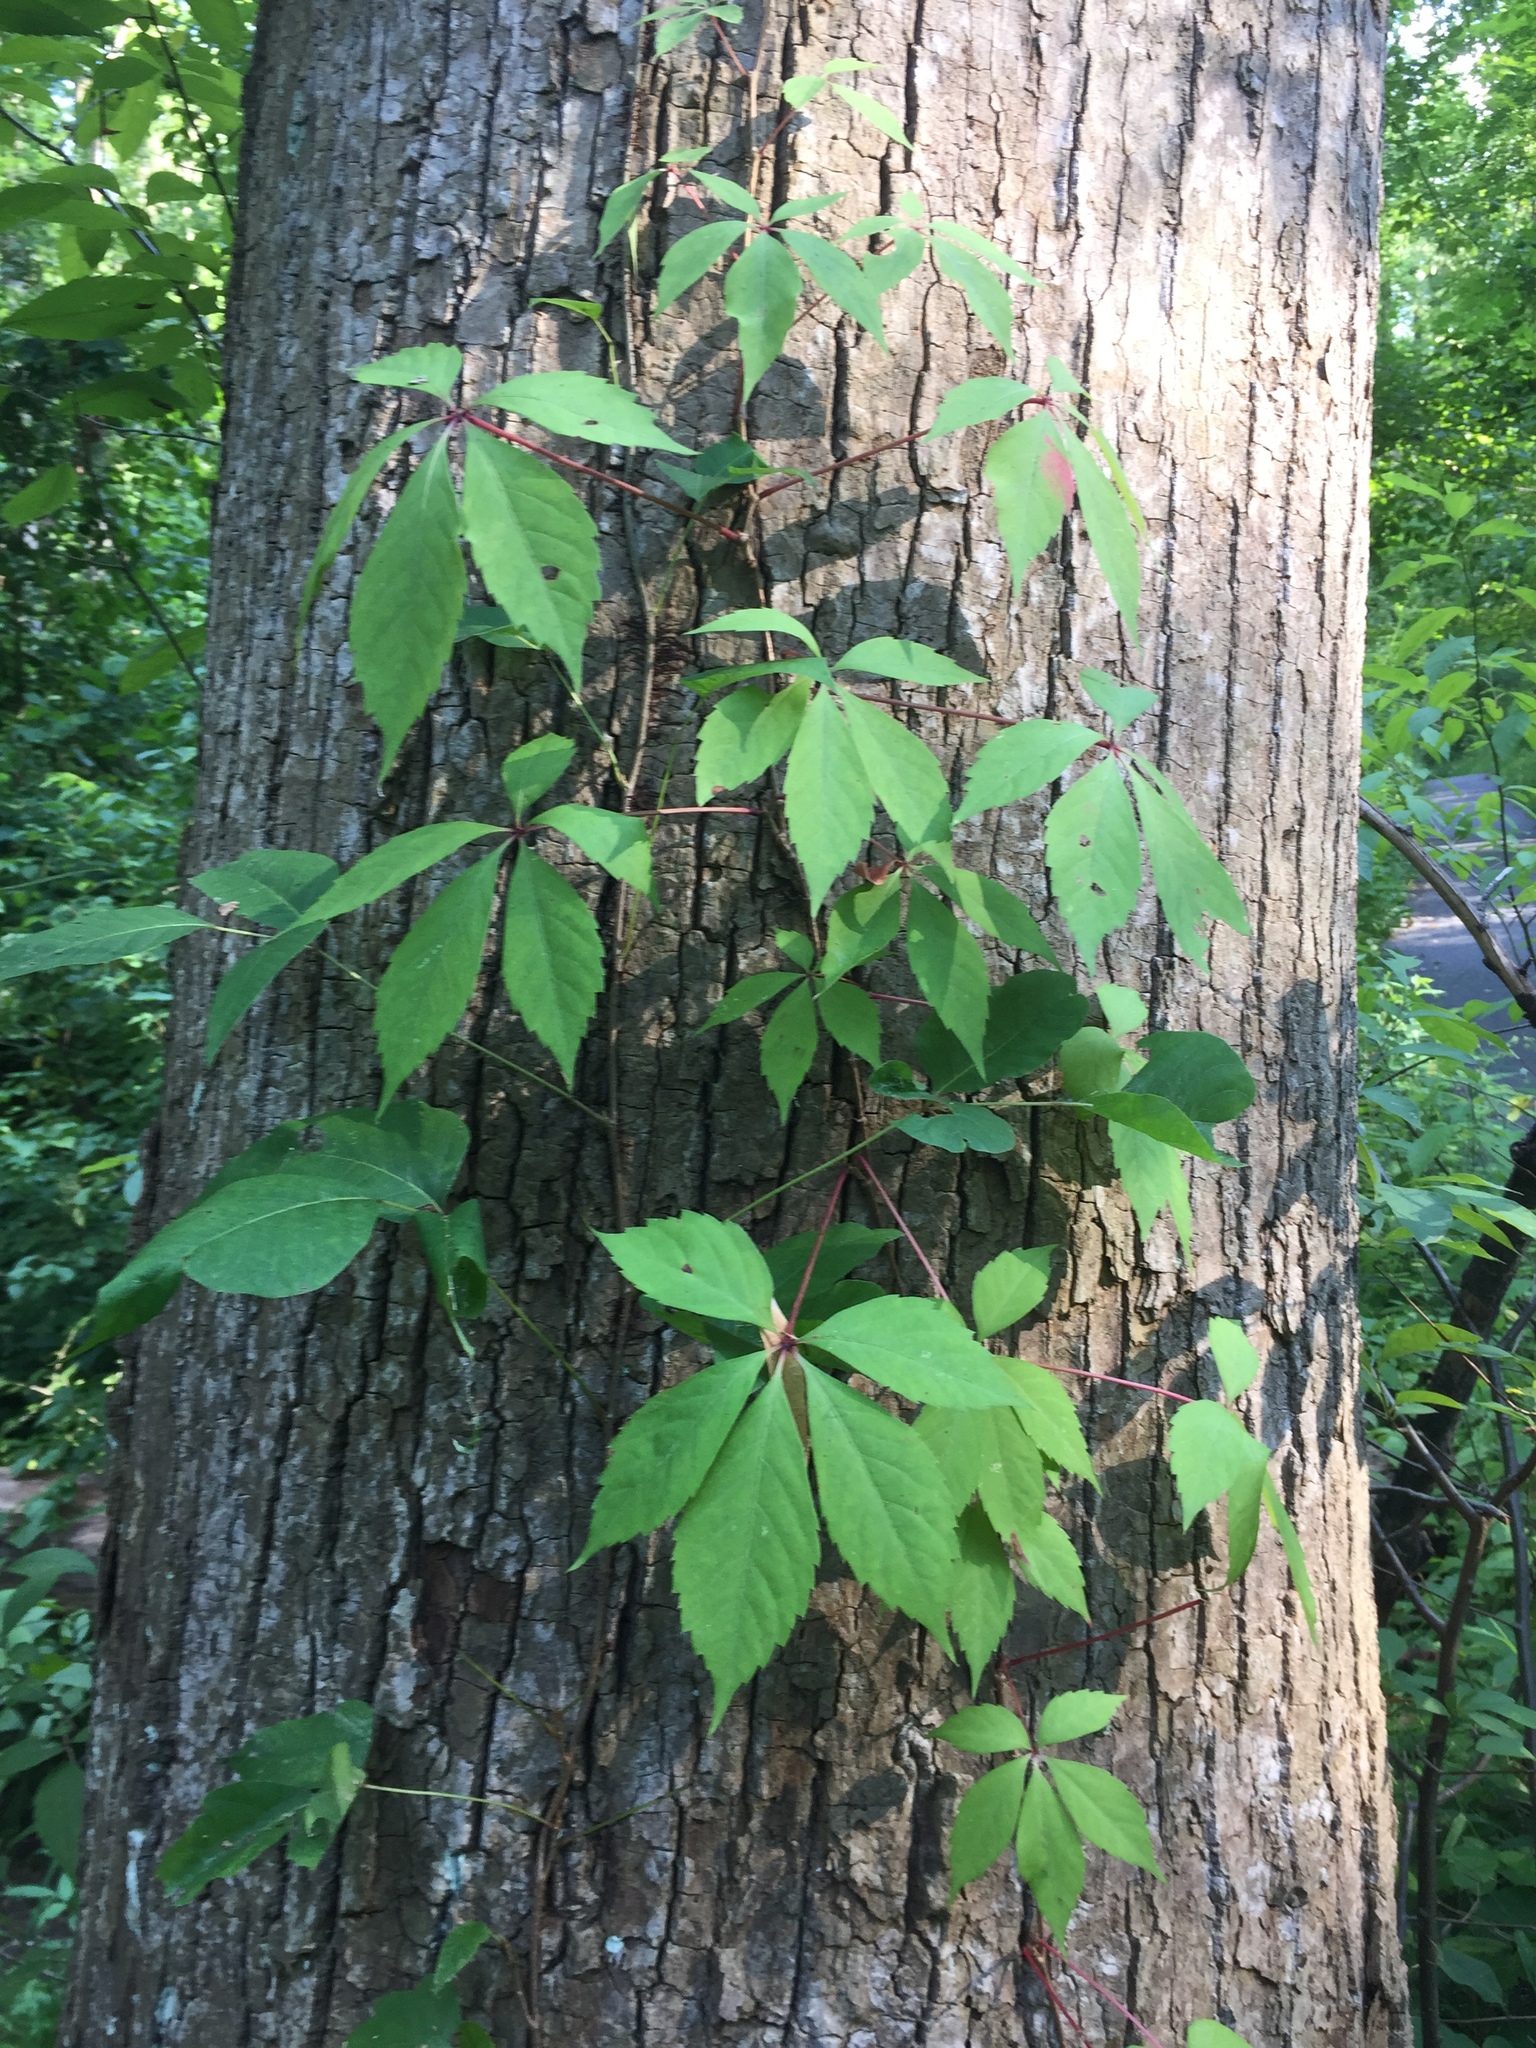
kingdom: Plantae
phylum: Tracheophyta
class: Magnoliopsida
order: Vitales
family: Vitaceae
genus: Parthenocissus
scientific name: Parthenocissus quinquefolia
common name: Virginia-creeper
